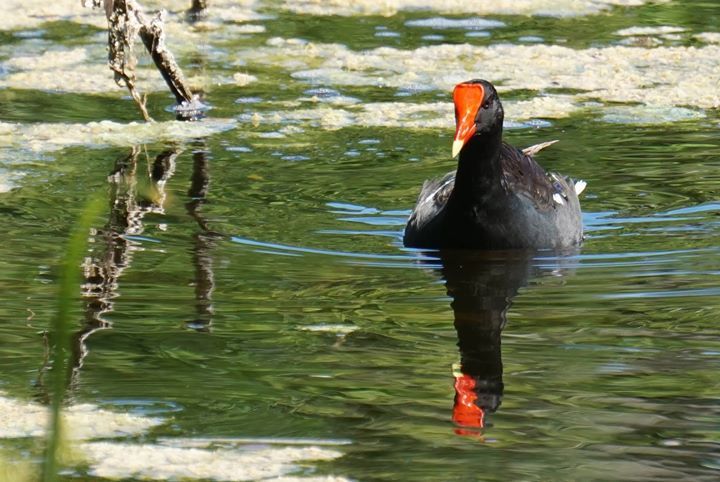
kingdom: Animalia
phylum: Chordata
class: Aves
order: Gruiformes
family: Rallidae
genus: Gallinula
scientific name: Gallinula chloropus
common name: Common moorhen
